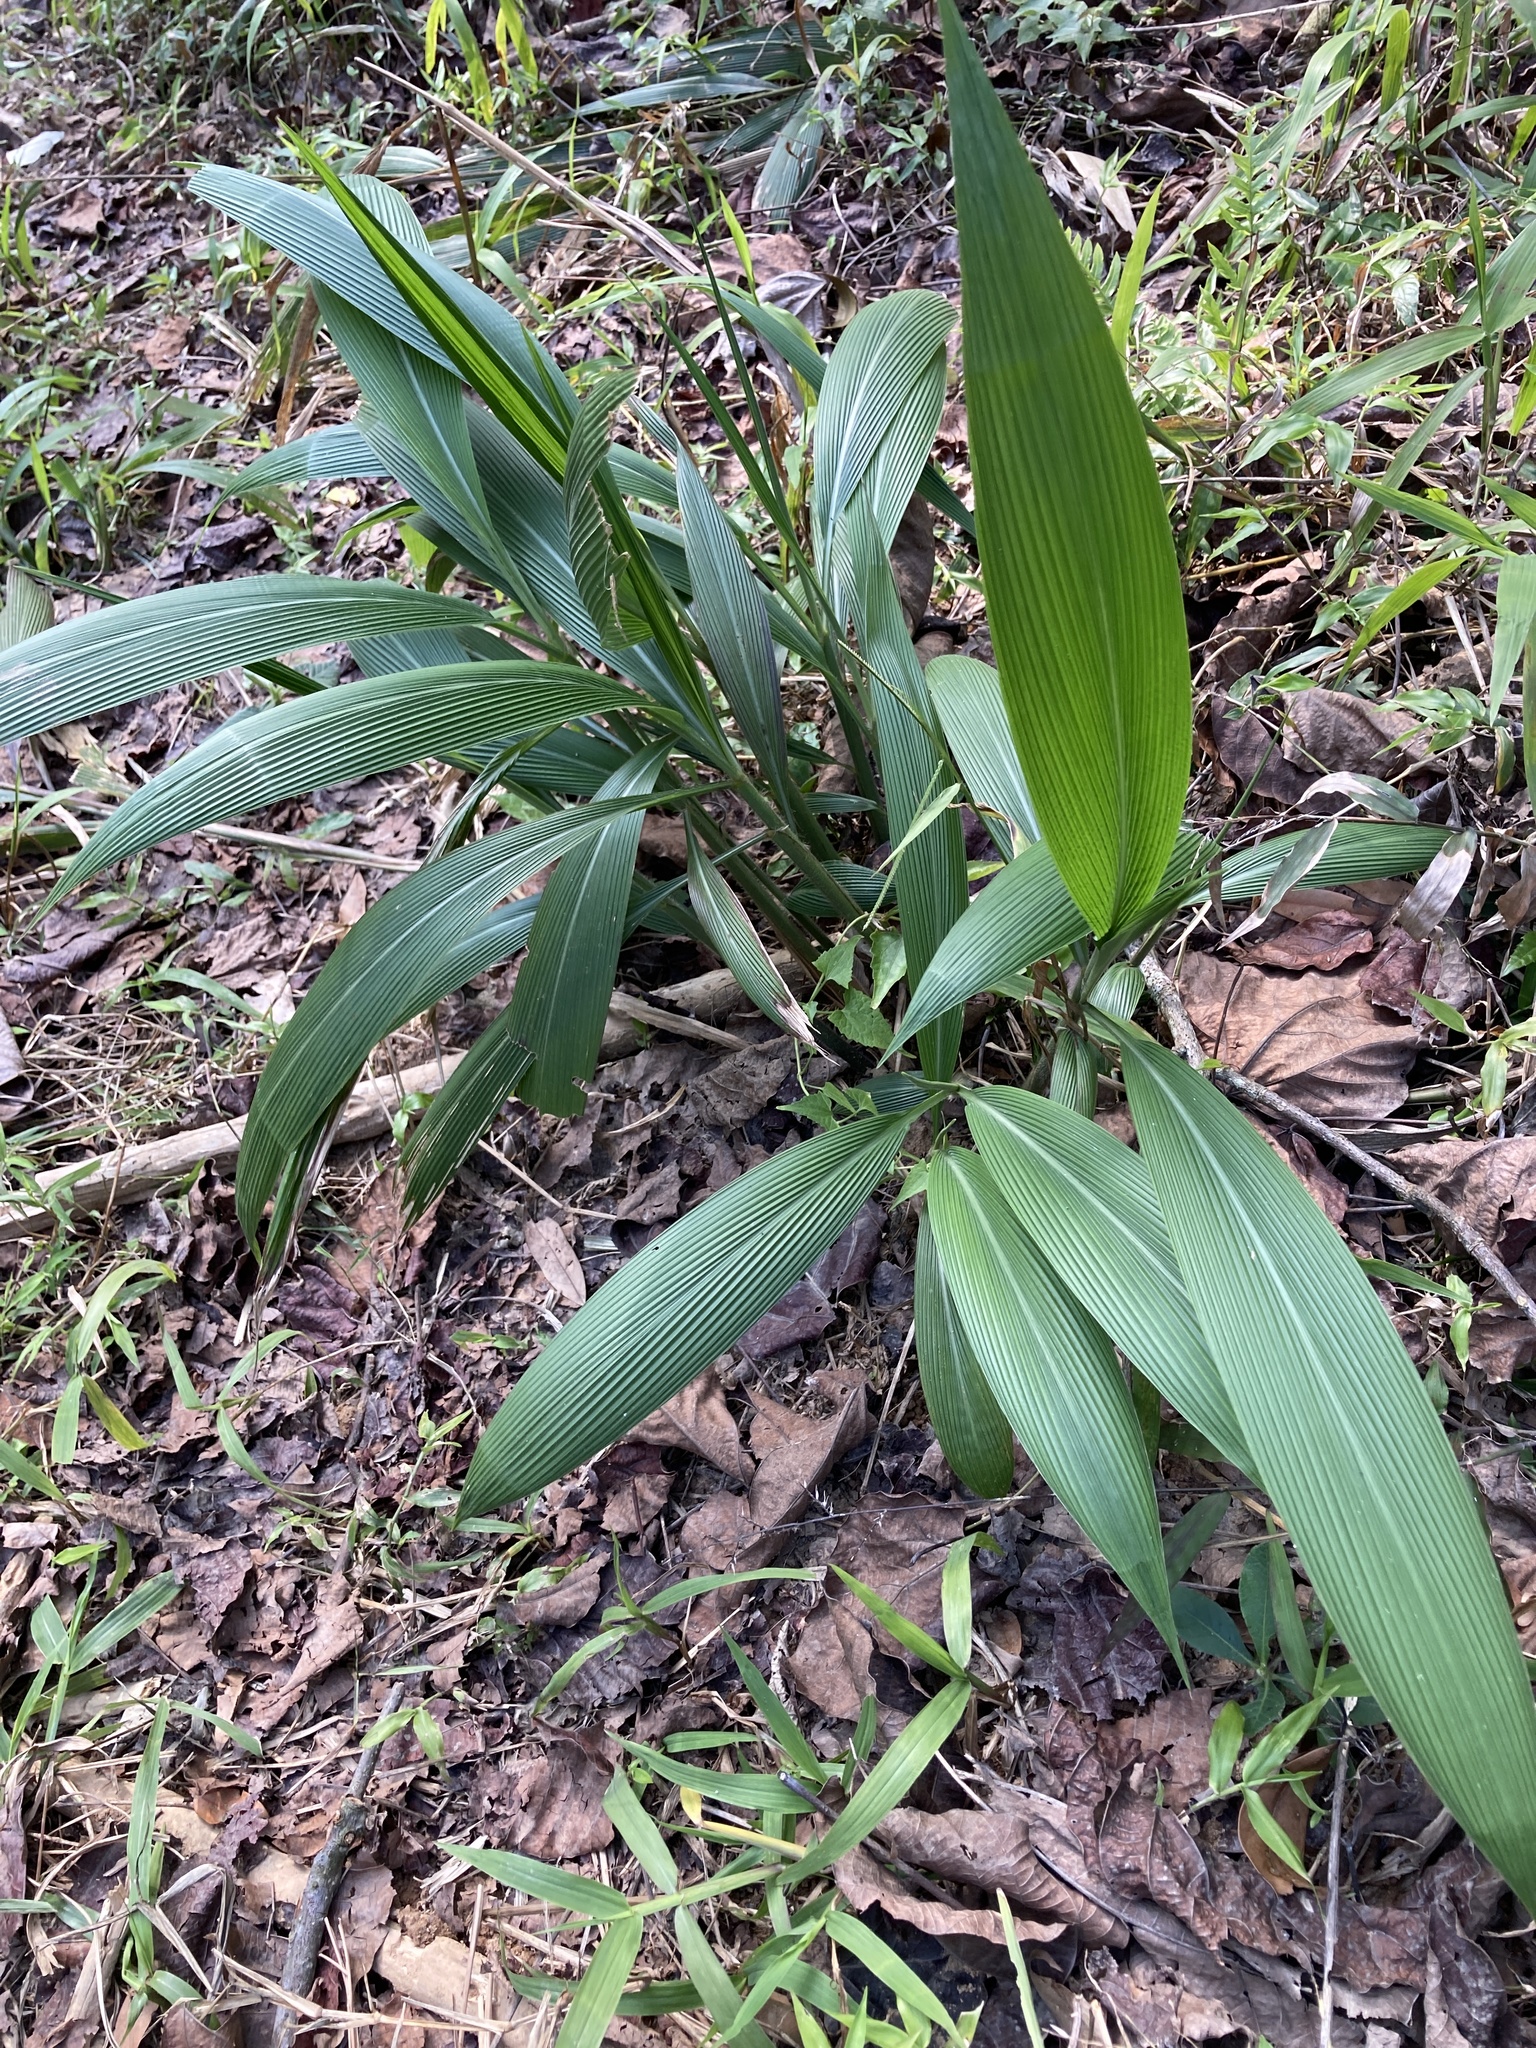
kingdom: Plantae
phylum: Tracheophyta
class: Liliopsida
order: Poales
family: Poaceae
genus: Setaria
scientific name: Setaria palmifolia
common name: Broadleaved bristlegrass
